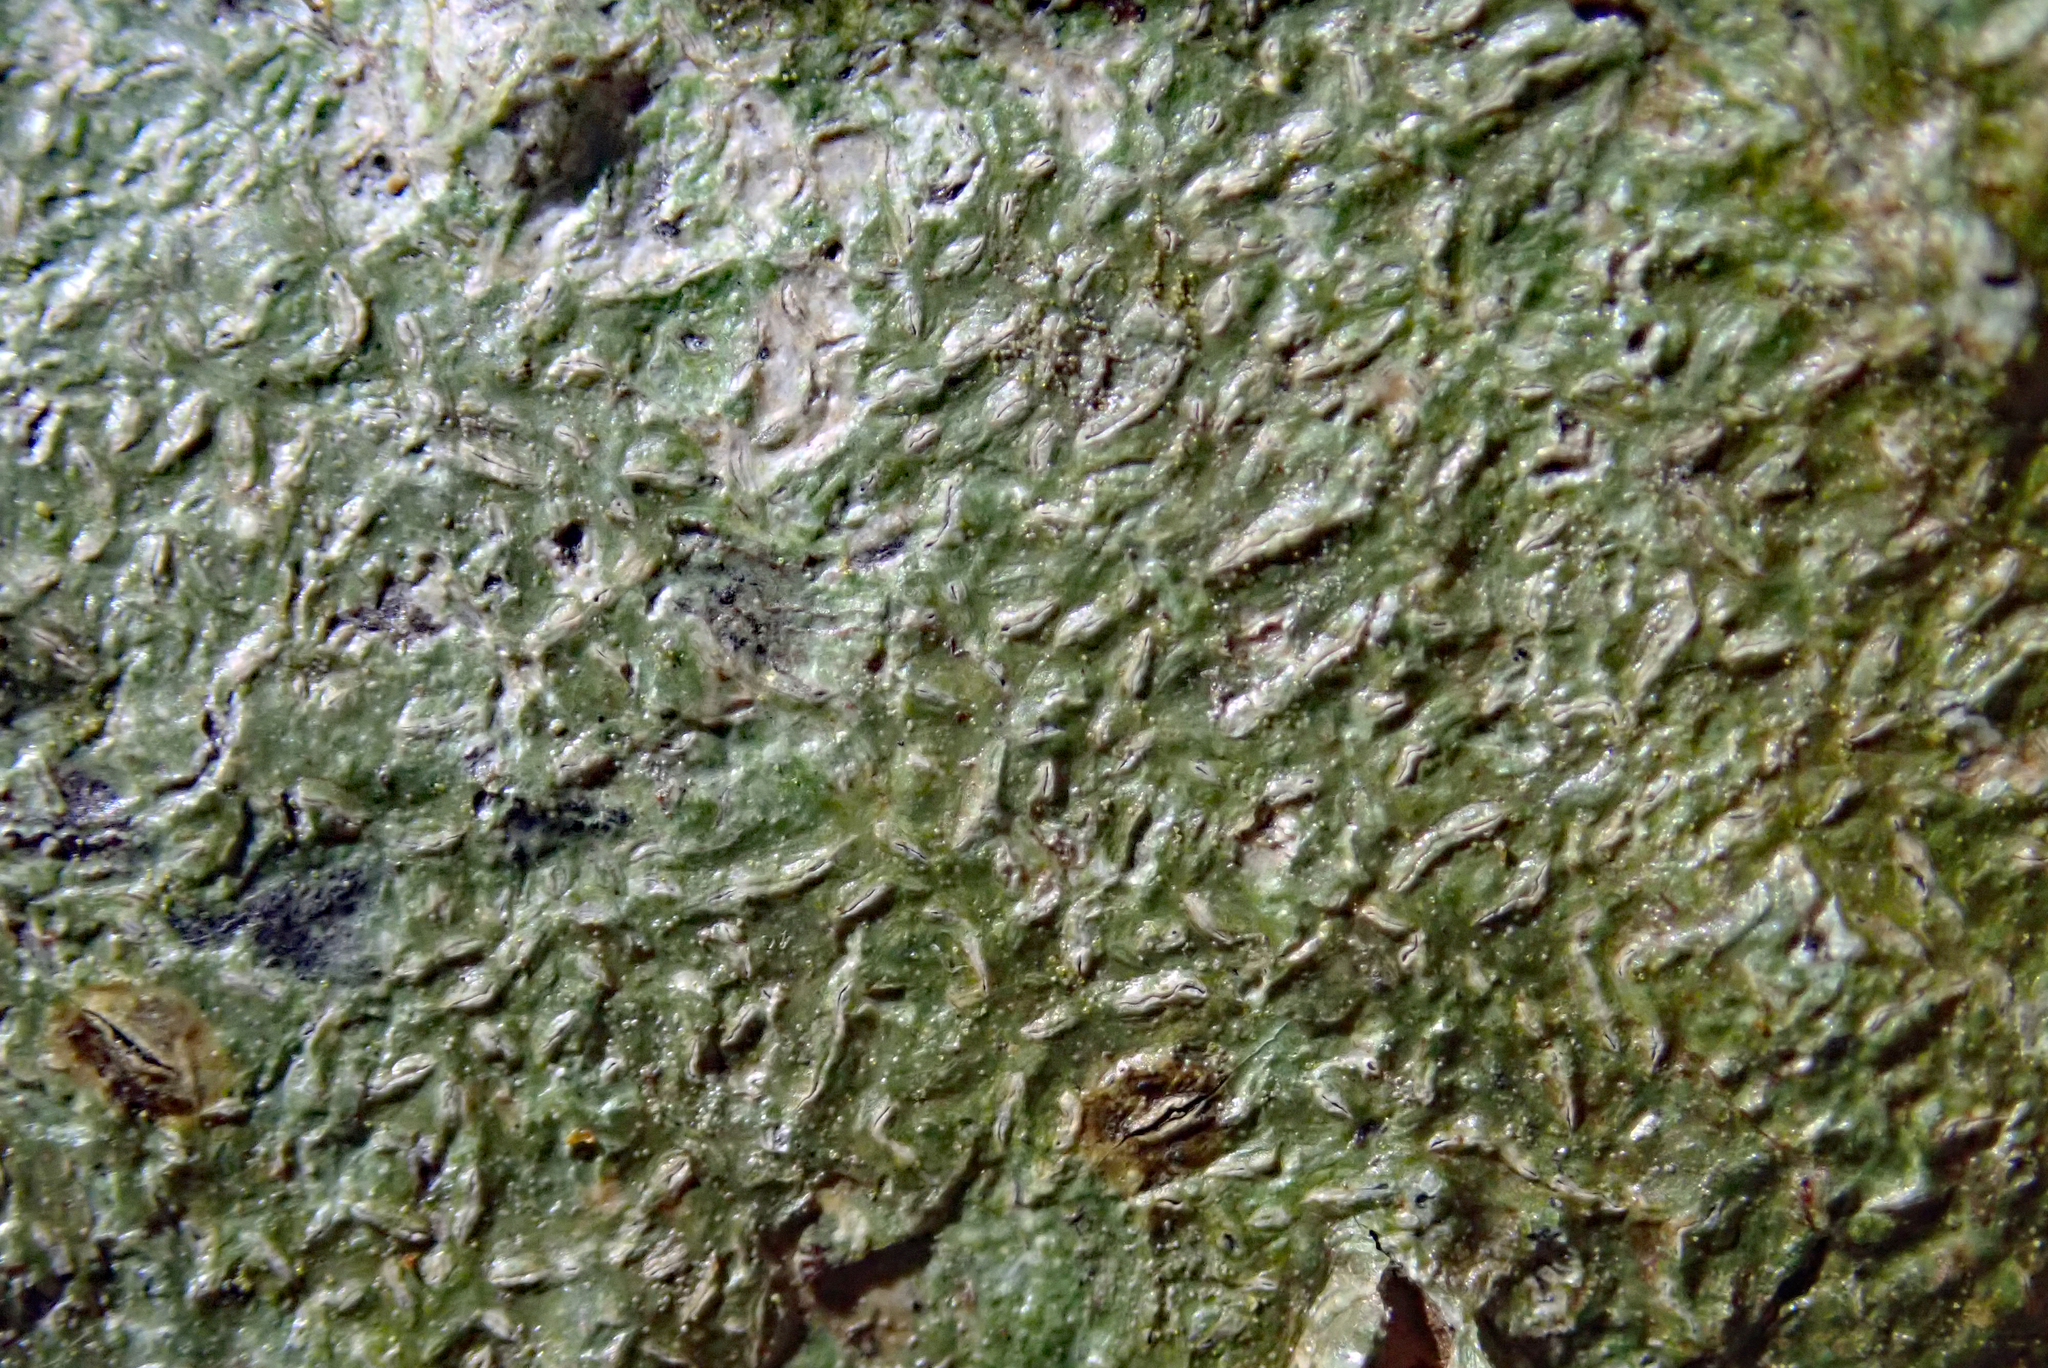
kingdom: Fungi
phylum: Ascomycota
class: Lecanoromycetes
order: Ostropales
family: Graphidaceae
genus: Fissurina
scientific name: Fissurina triticea
